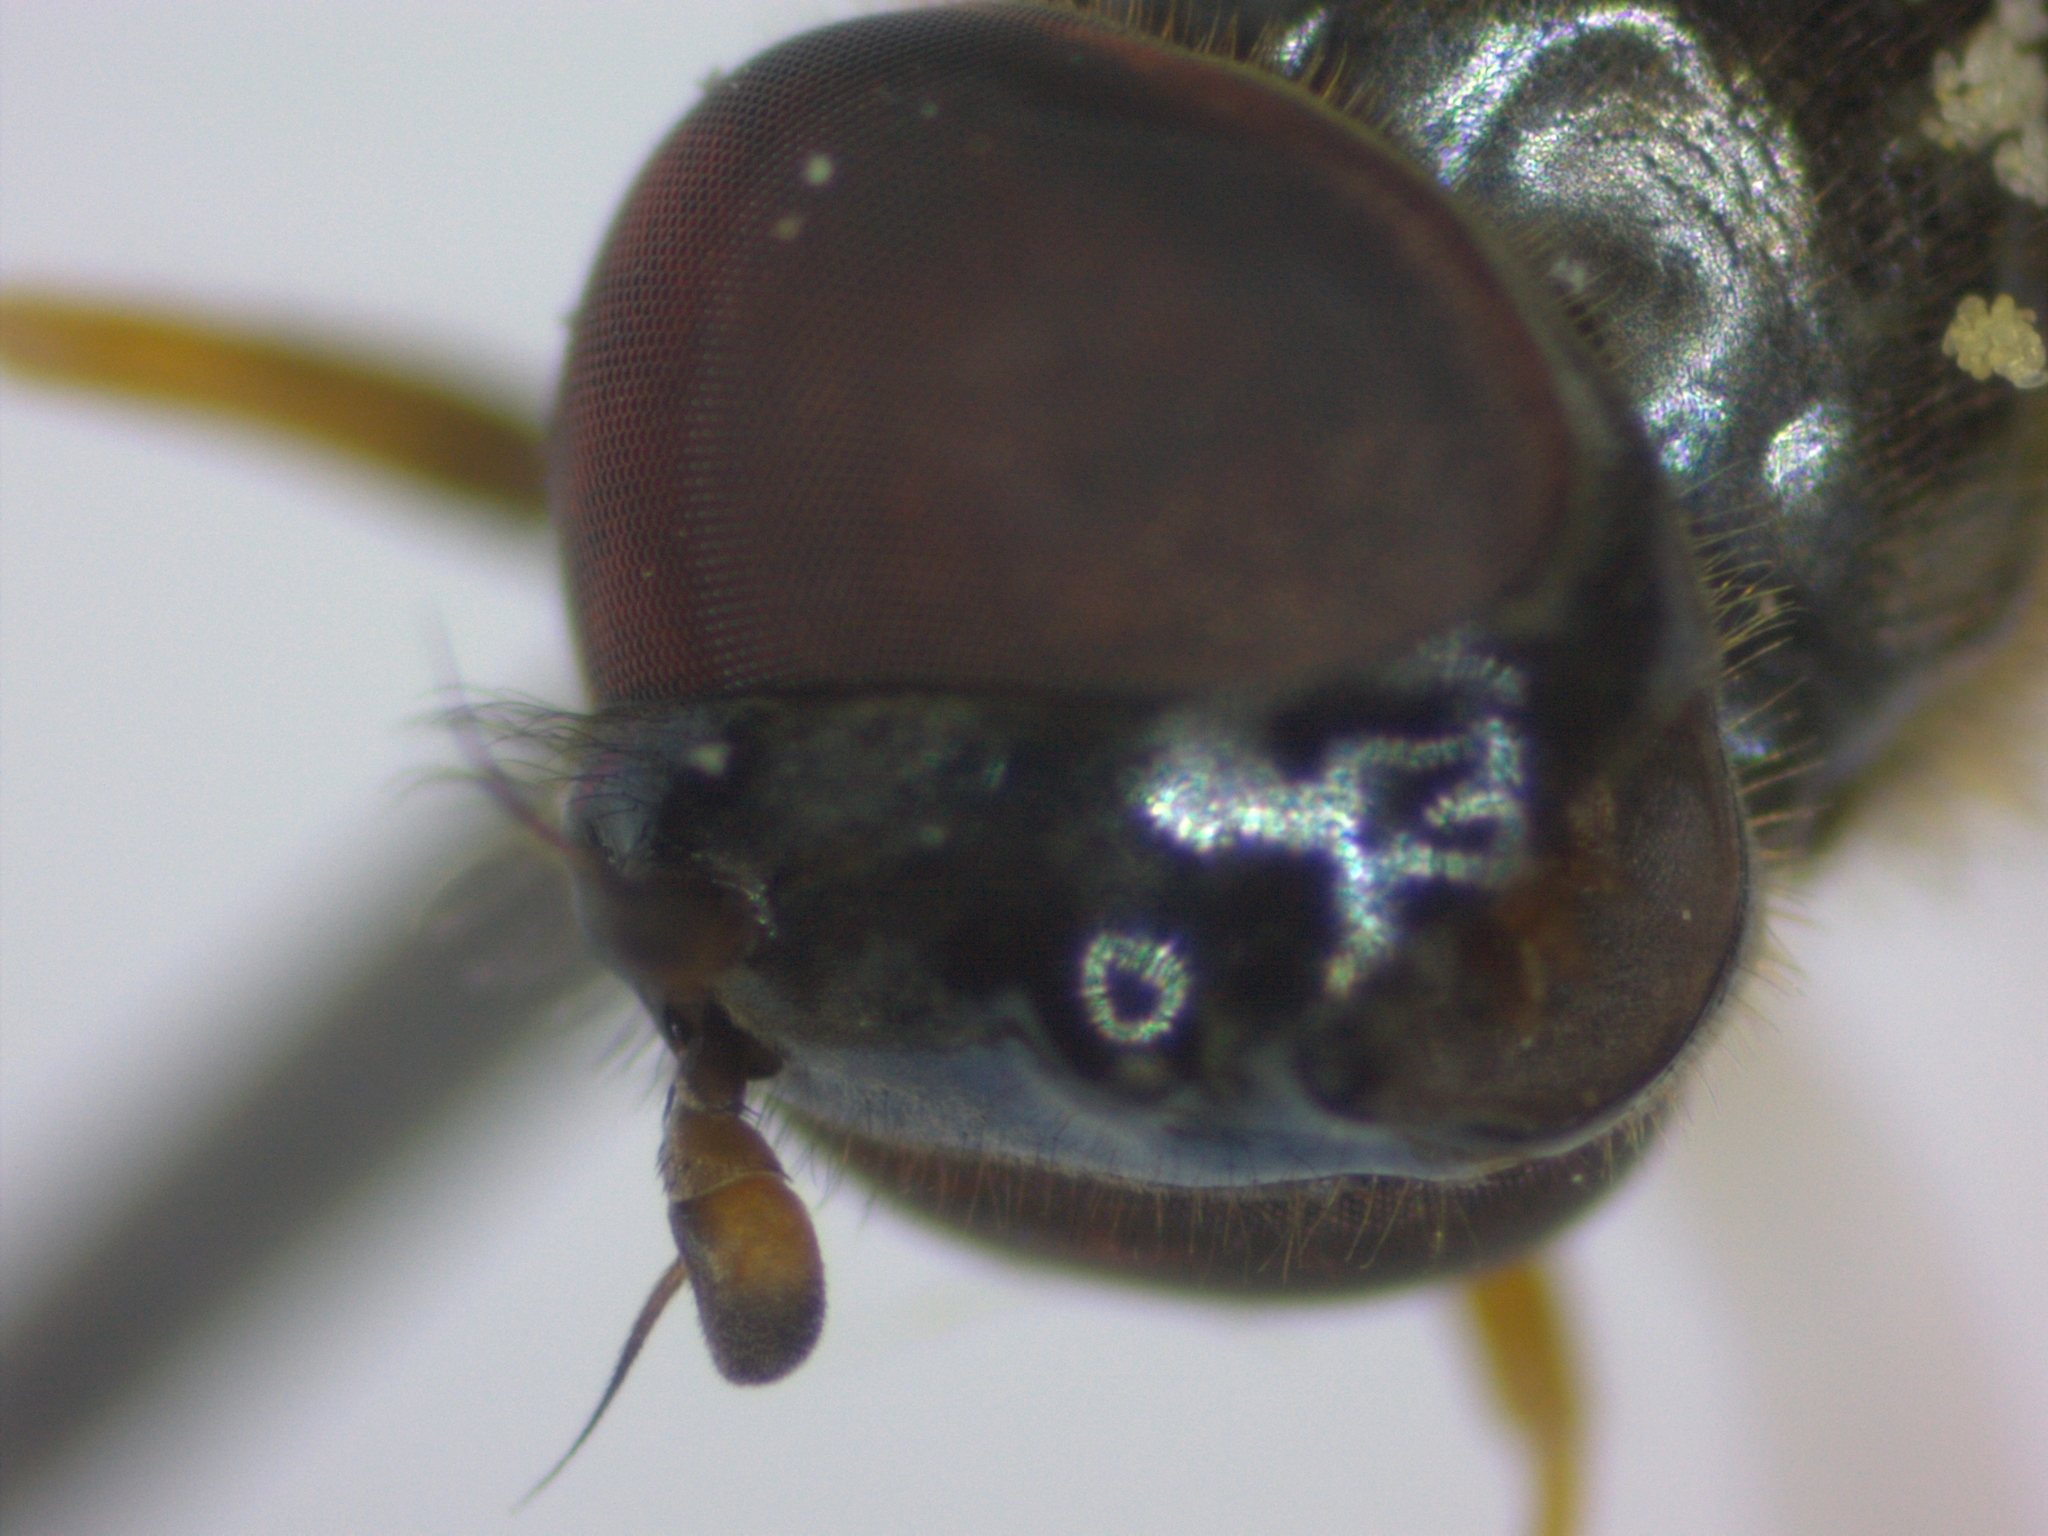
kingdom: Animalia
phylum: Arthropoda
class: Insecta
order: Diptera
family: Syrphidae
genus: Melanostoma
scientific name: Melanostoma mellina
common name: Hover fly
